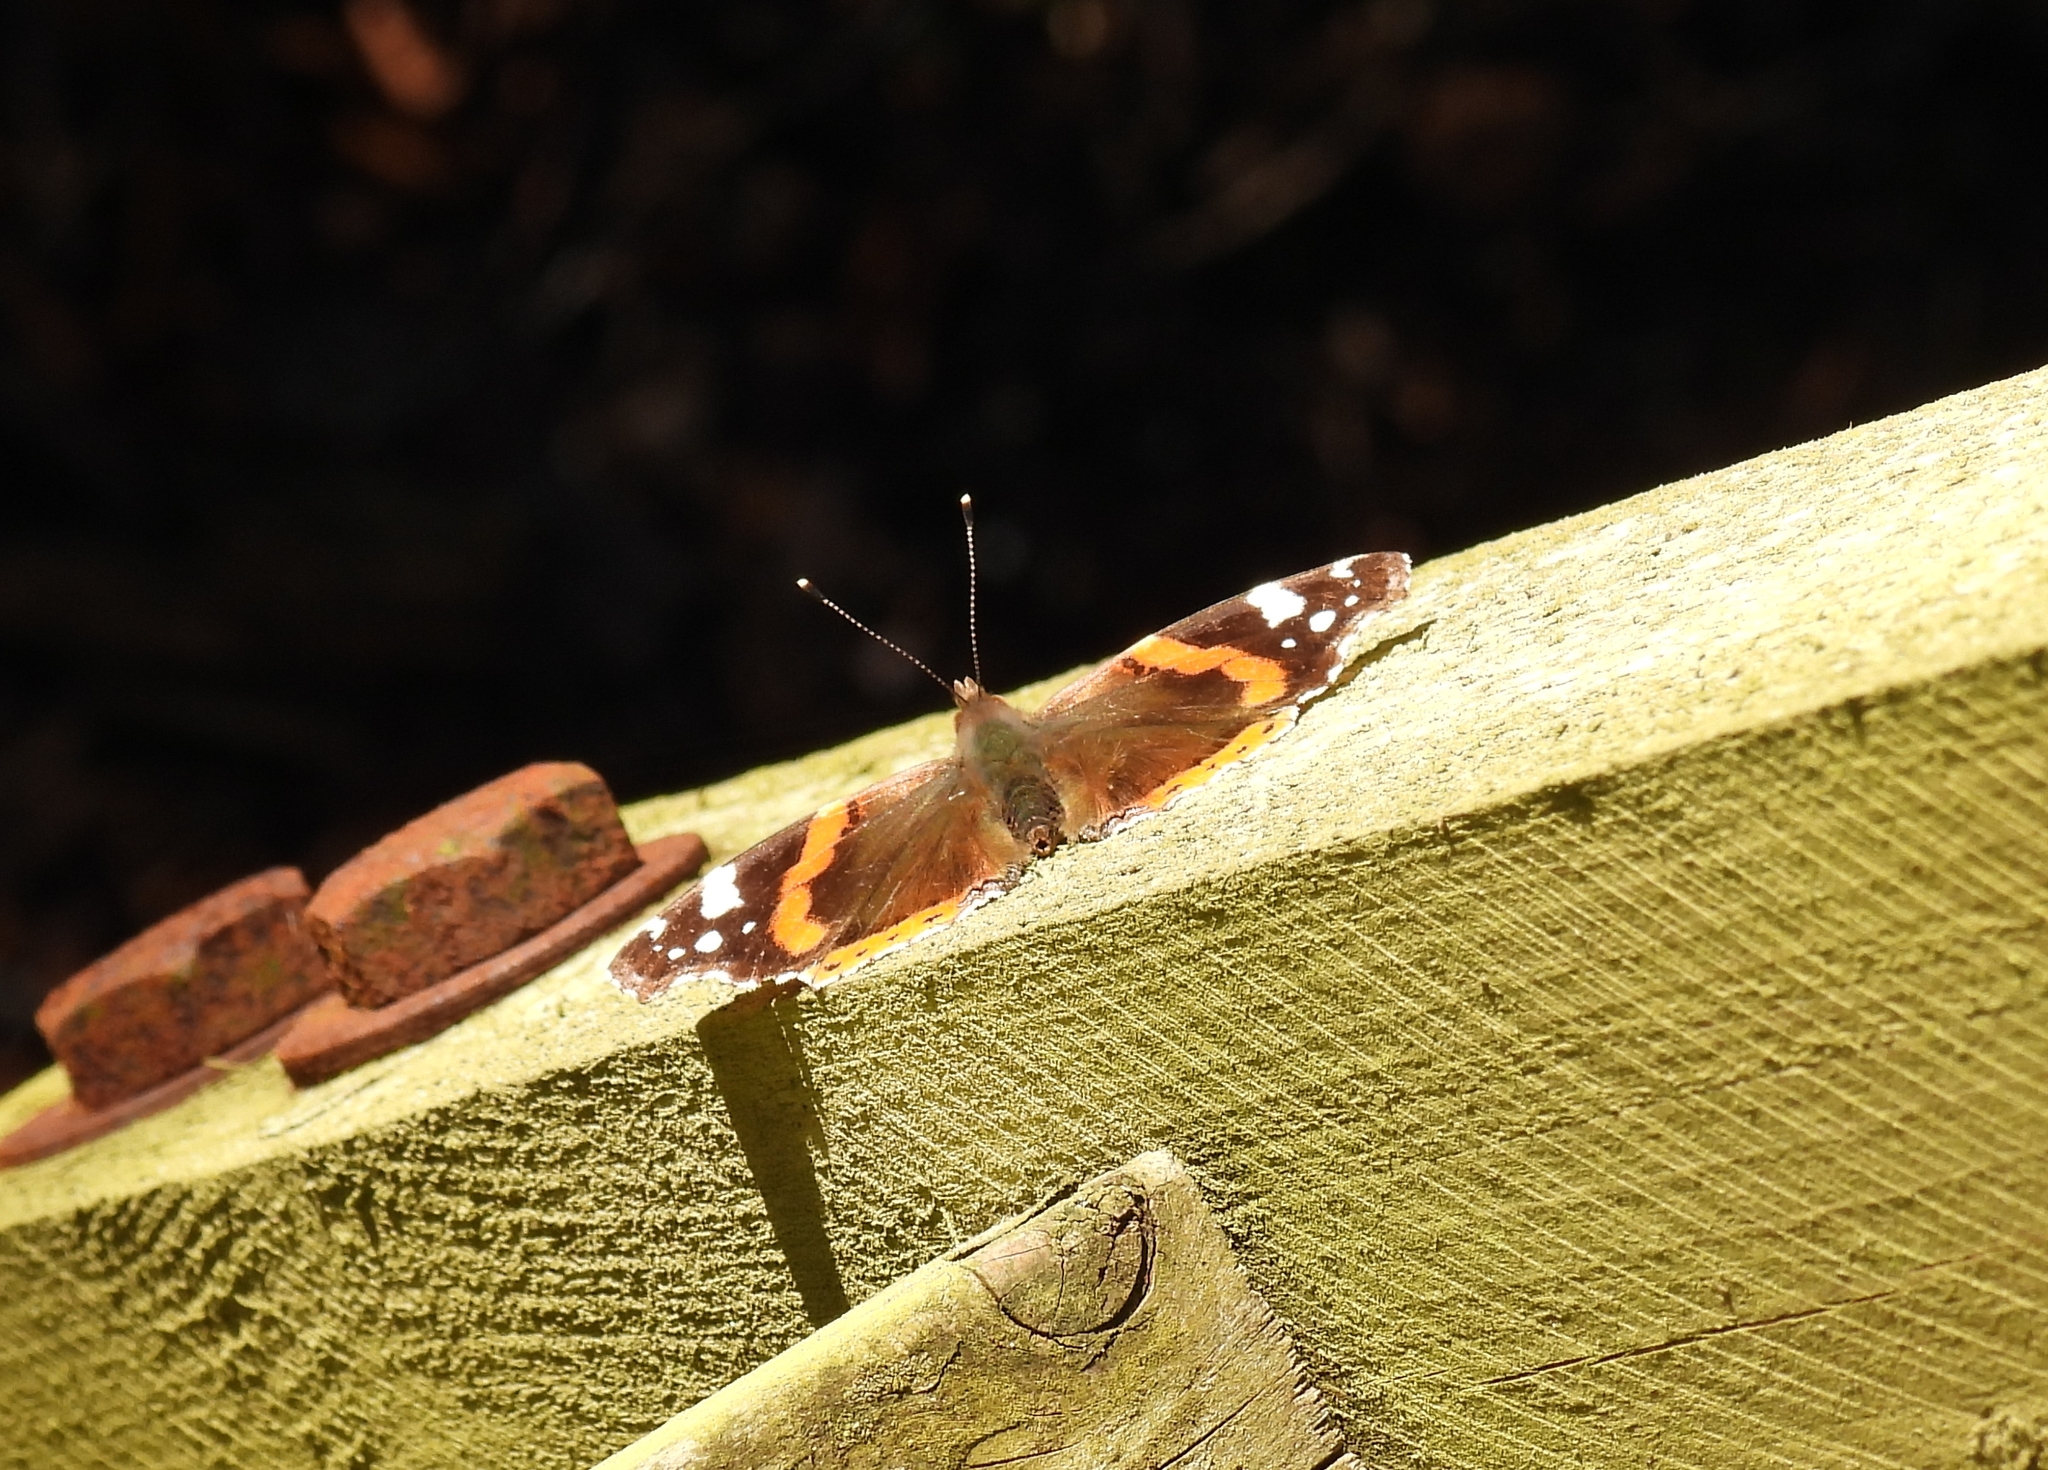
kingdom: Animalia
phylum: Arthropoda
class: Insecta
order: Lepidoptera
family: Nymphalidae
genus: Vanessa
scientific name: Vanessa atalanta
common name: Red admiral
